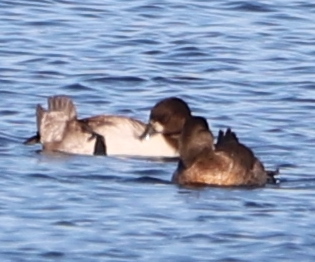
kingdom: Animalia
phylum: Chordata
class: Aves
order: Anseriformes
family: Anatidae
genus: Oxyura
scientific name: Oxyura jamaicensis
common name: Ruddy duck
